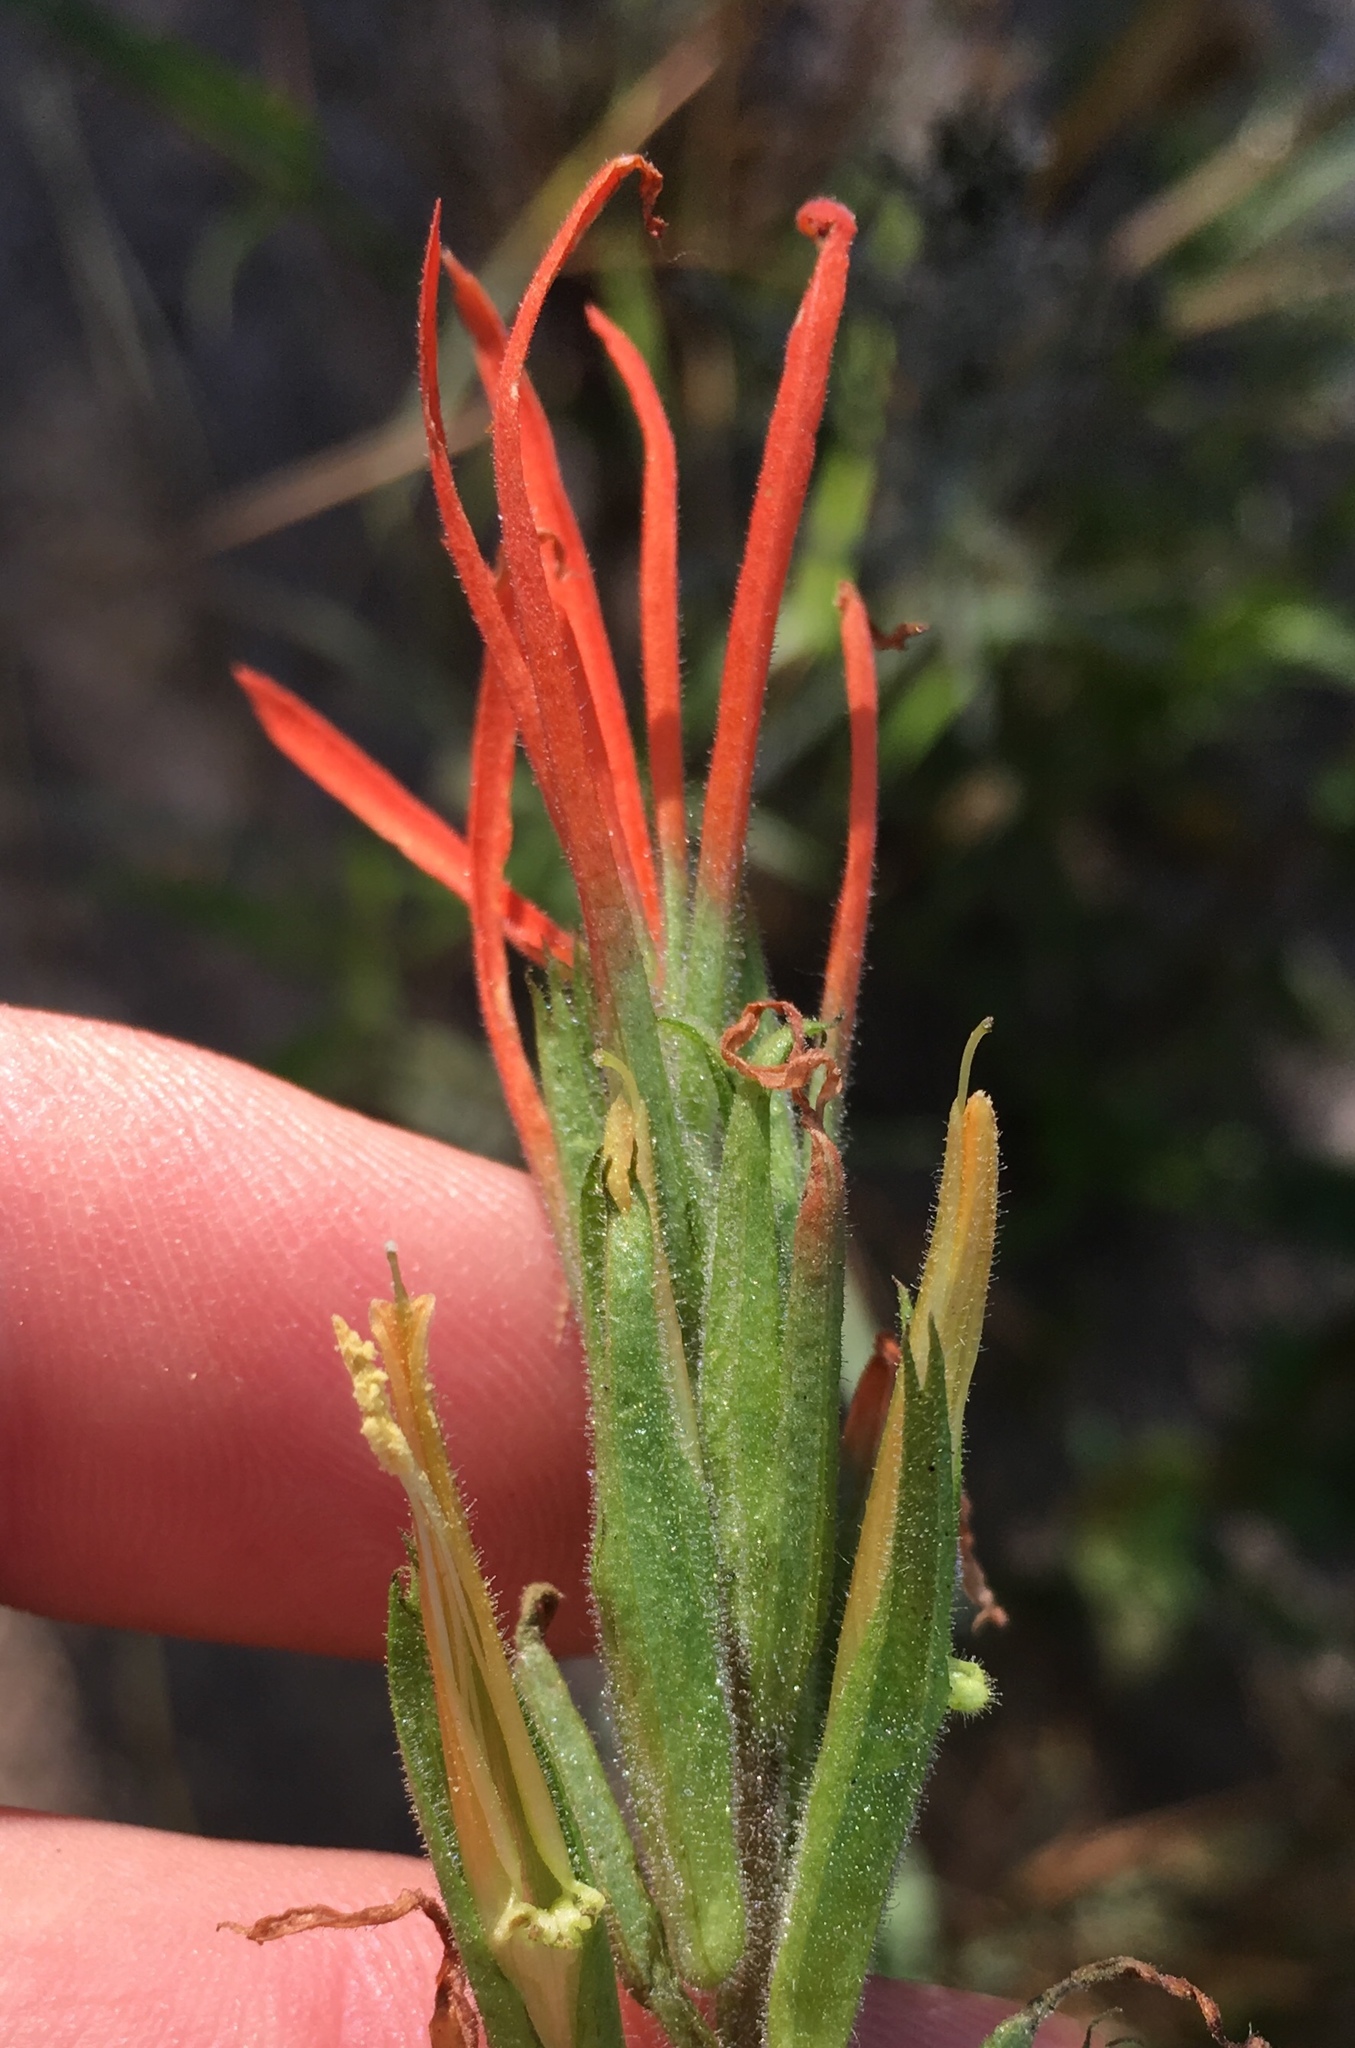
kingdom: Plantae
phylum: Tracheophyta
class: Magnoliopsida
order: Lamiales
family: Orobanchaceae
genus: Castilleja
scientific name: Castilleja minor
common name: Seep paintbrush
